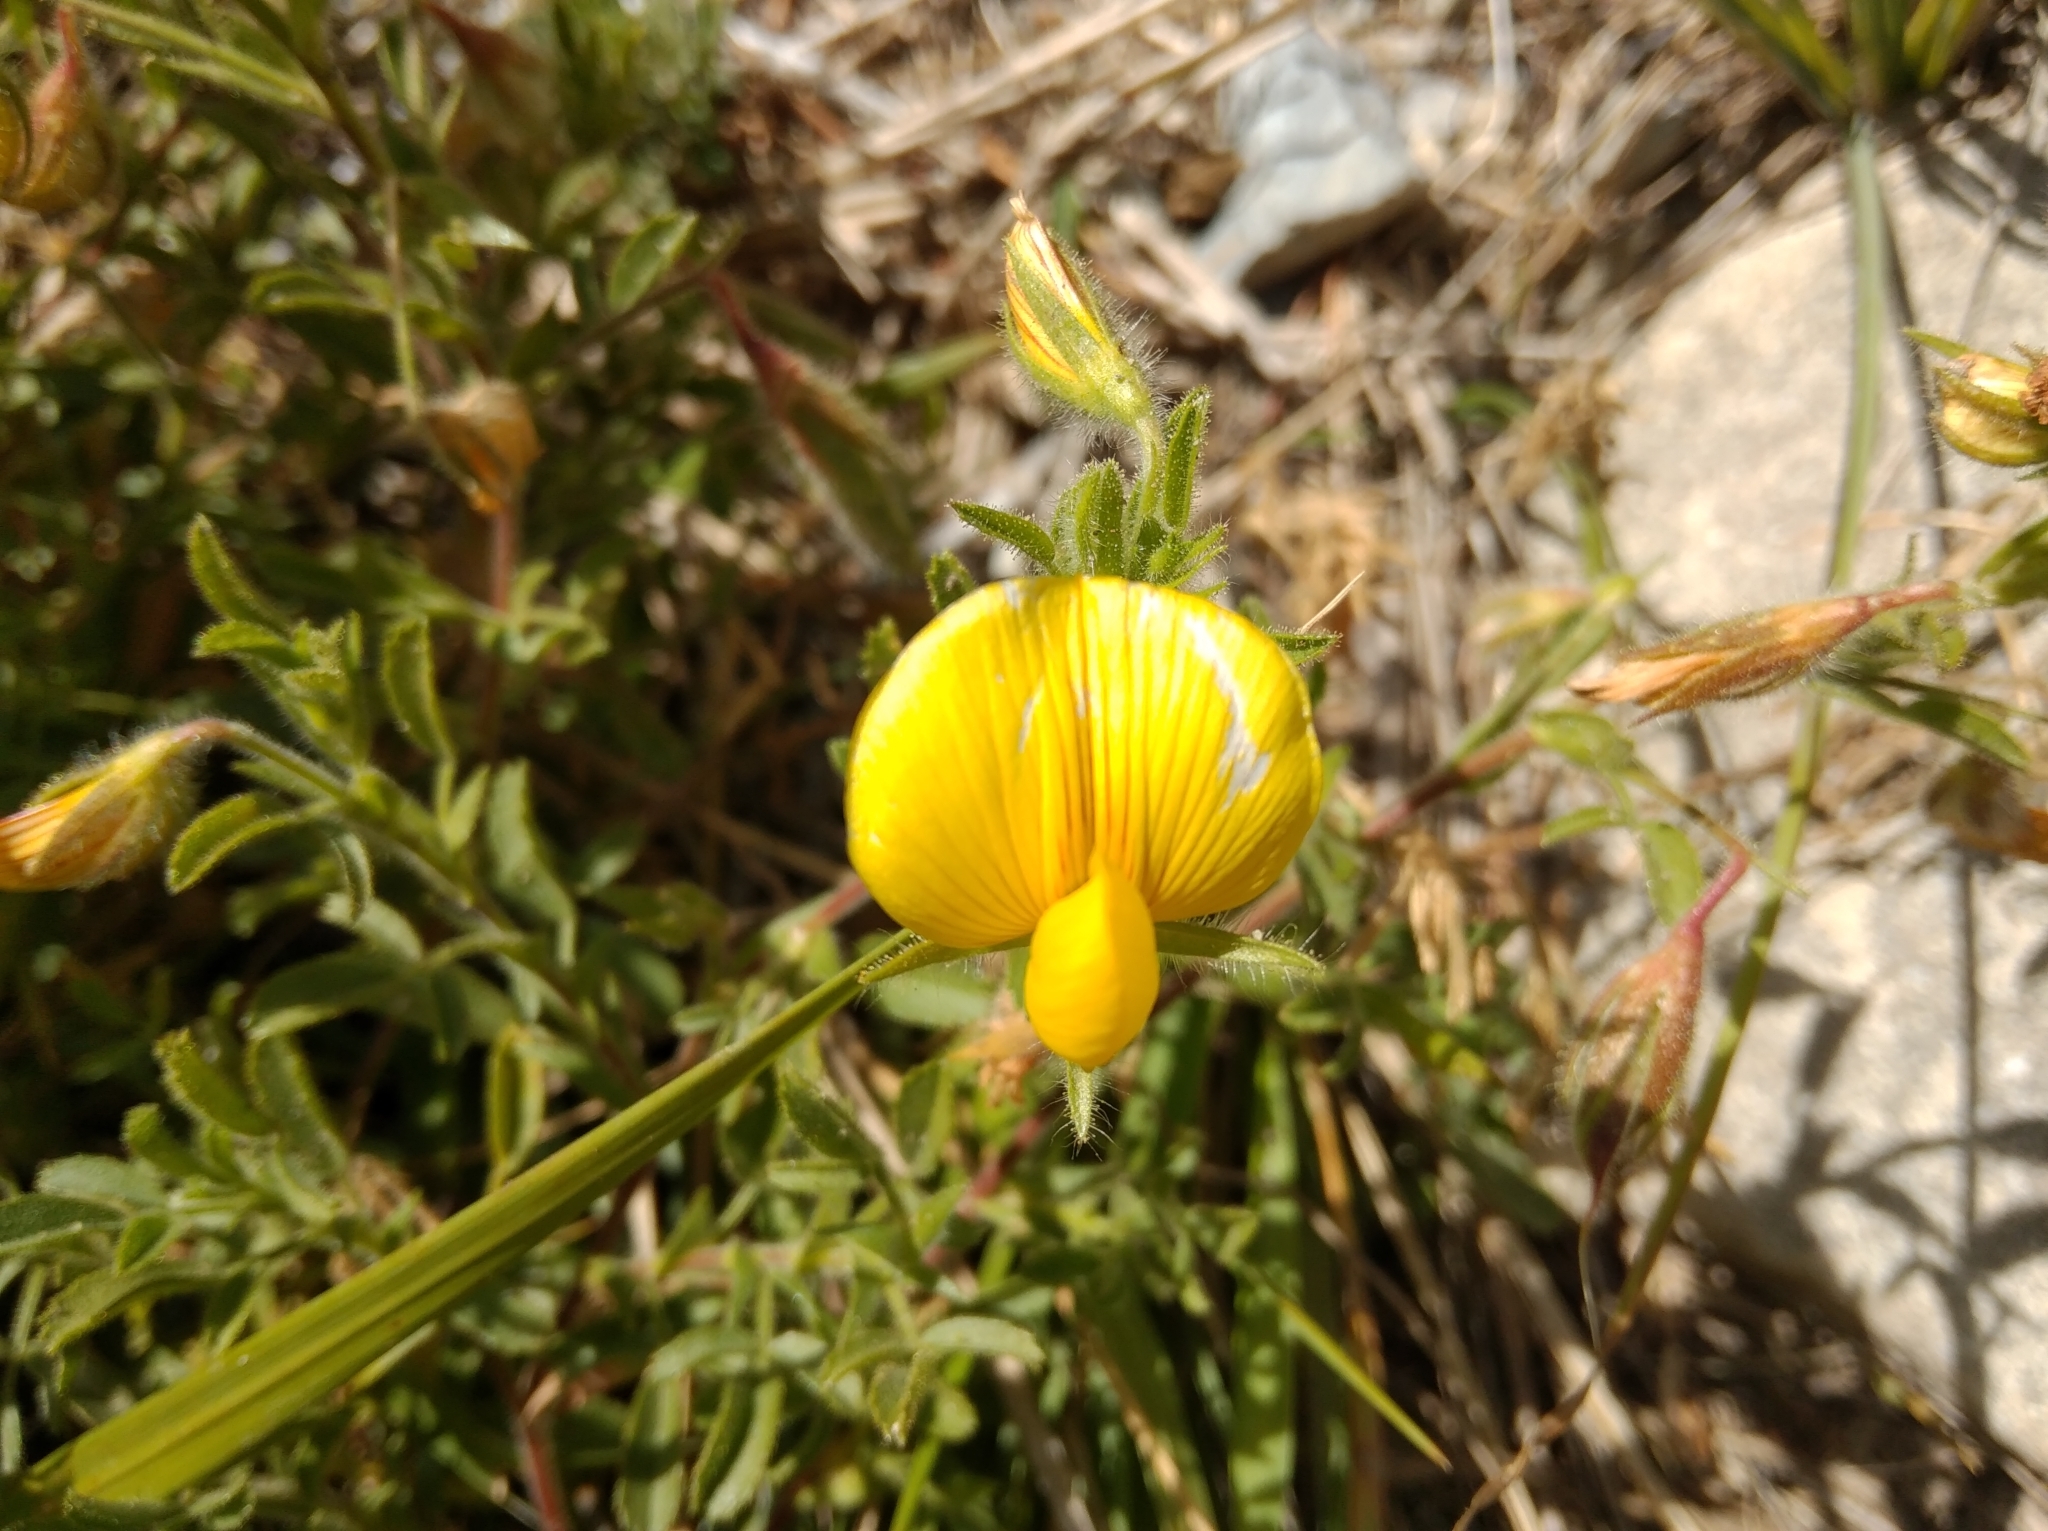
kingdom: Plantae
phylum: Tracheophyta
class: Magnoliopsida
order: Fabales
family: Fabaceae
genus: Ononis
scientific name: Ononis natrix
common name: Yellow restharrow
